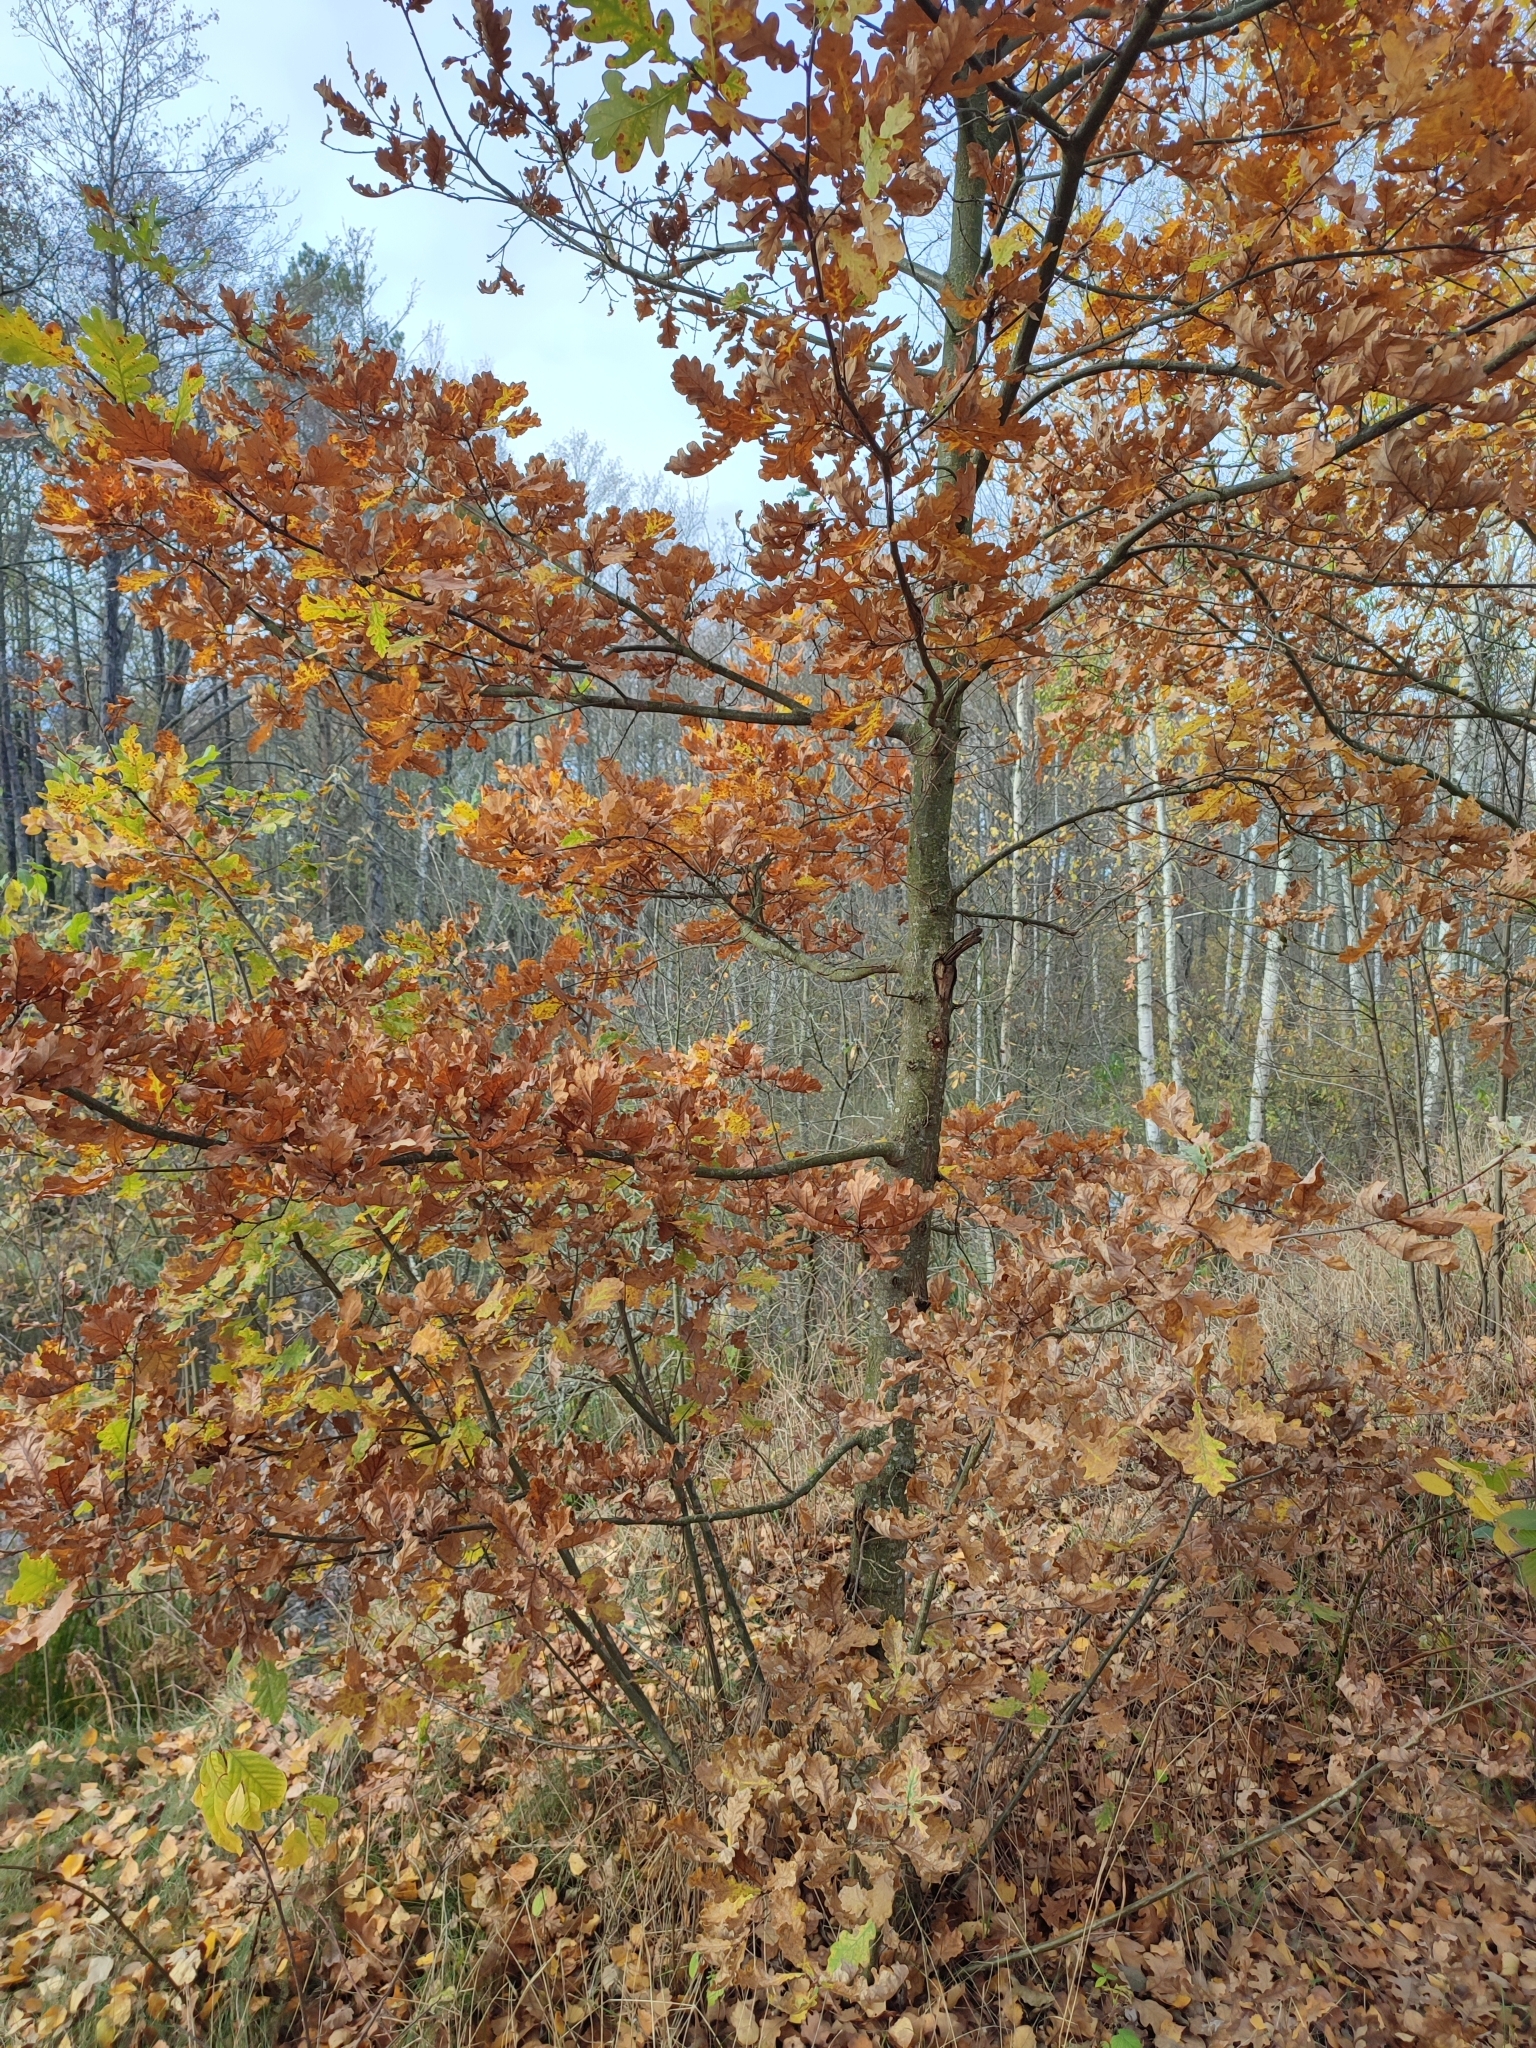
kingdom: Plantae
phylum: Tracheophyta
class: Magnoliopsida
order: Fagales
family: Fagaceae
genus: Quercus
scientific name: Quercus robur
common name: Pedunculate oak
